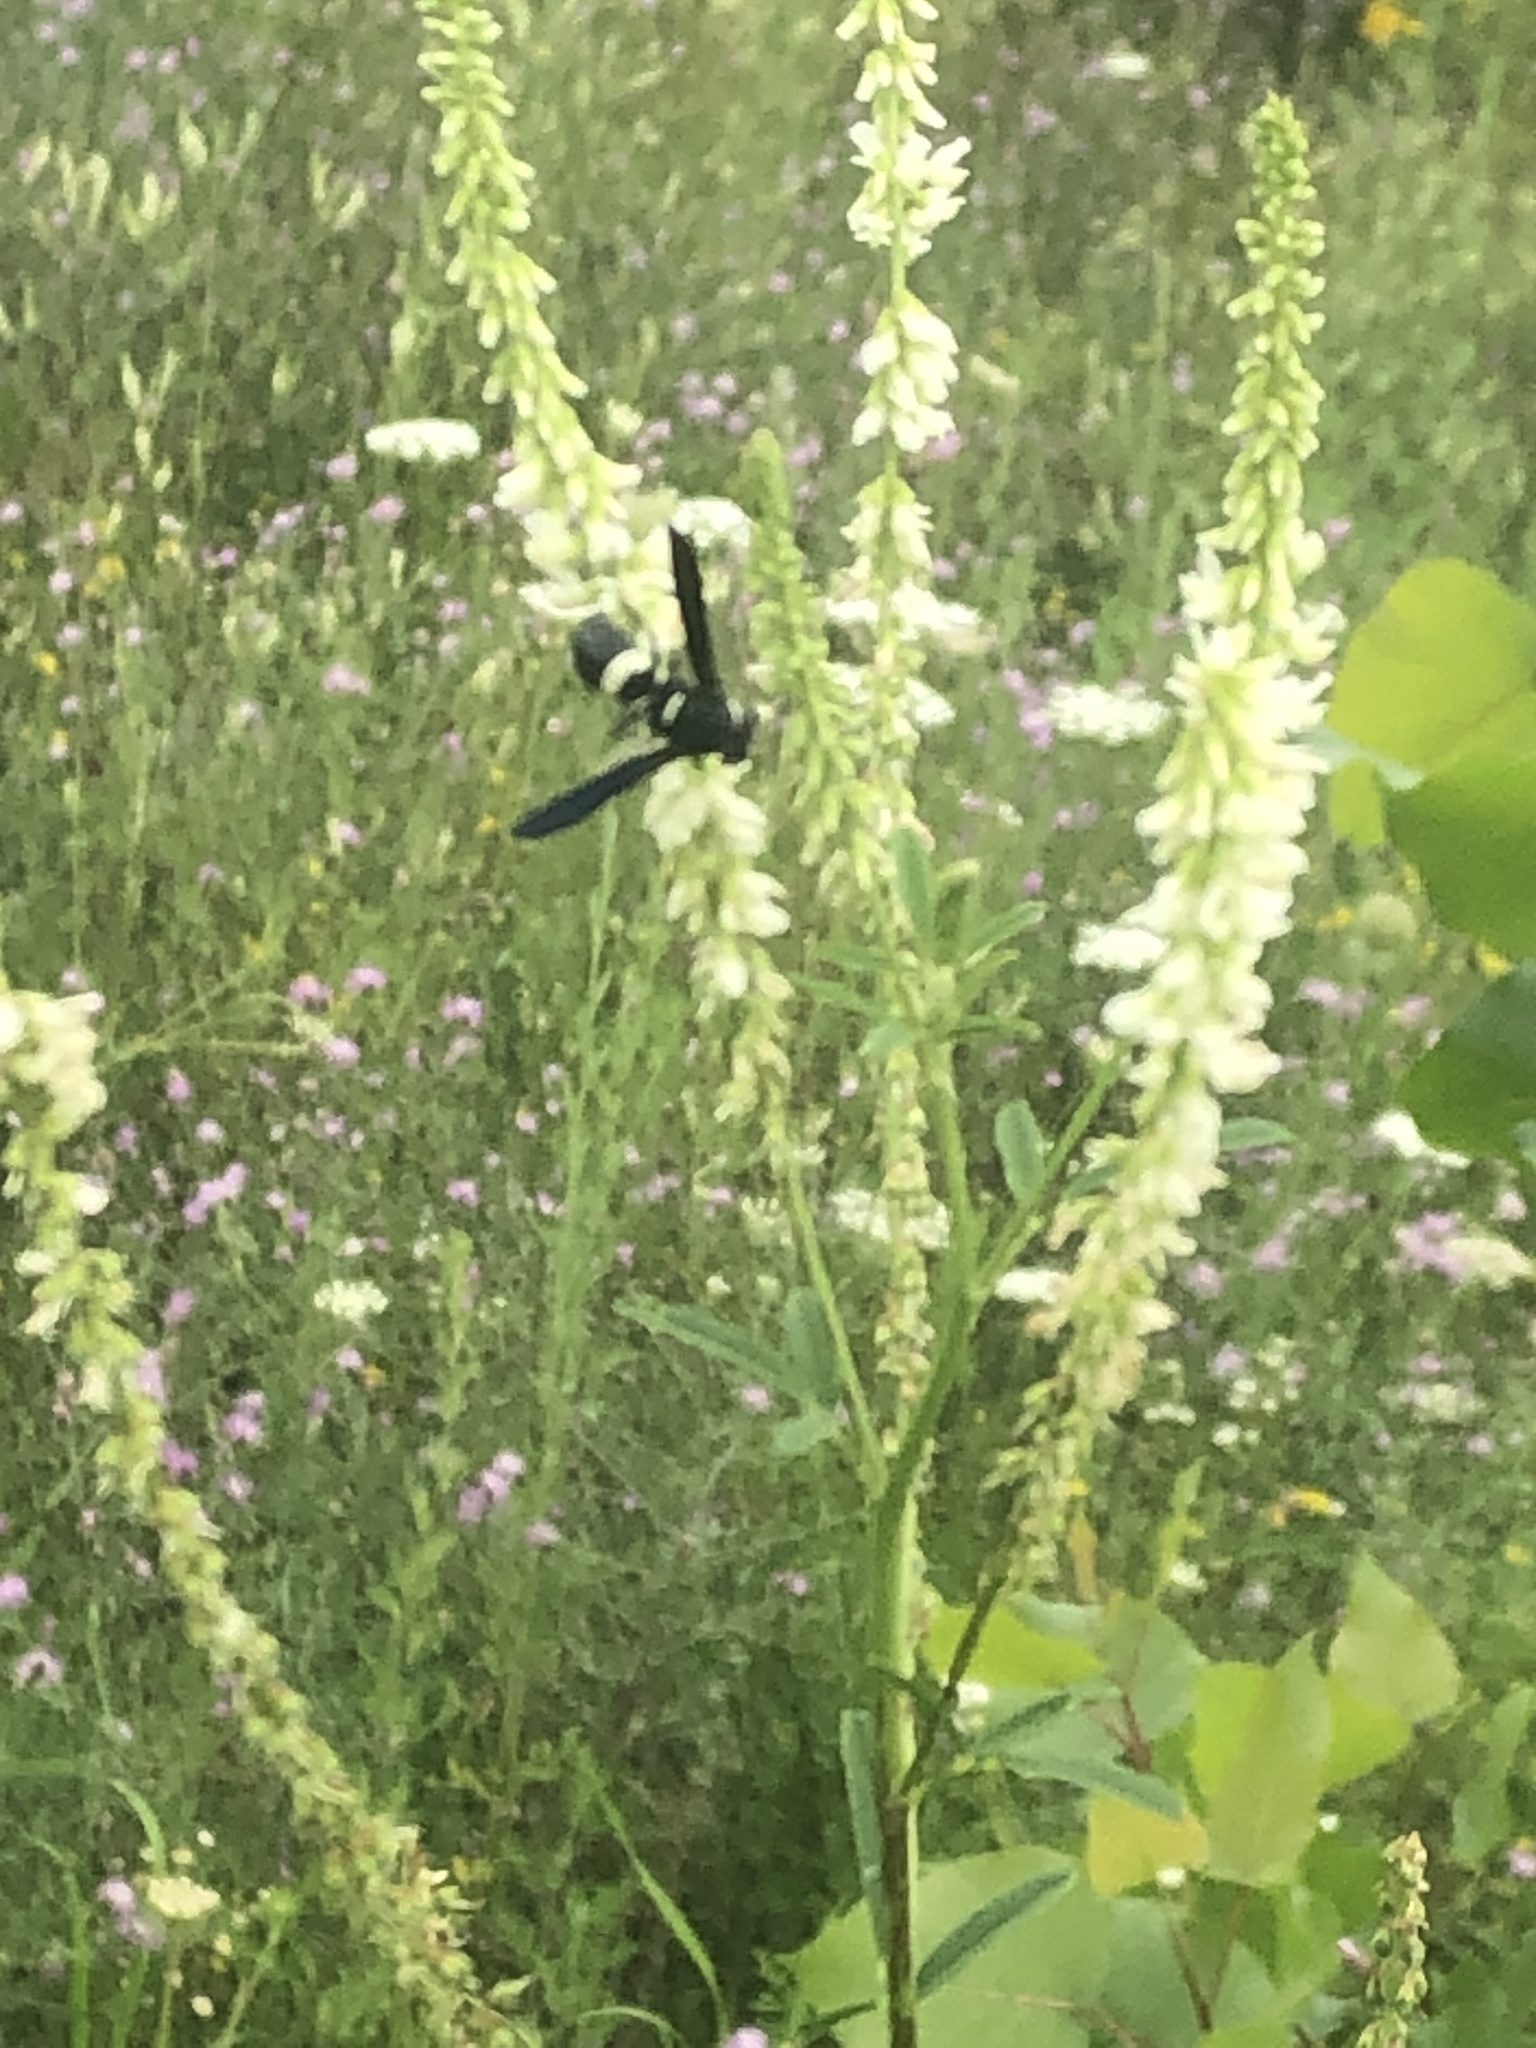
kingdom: Animalia
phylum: Arthropoda
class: Insecta
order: Hymenoptera
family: Eumenidae
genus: Monobia
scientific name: Monobia quadridens
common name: Four-toothed mason wasp
